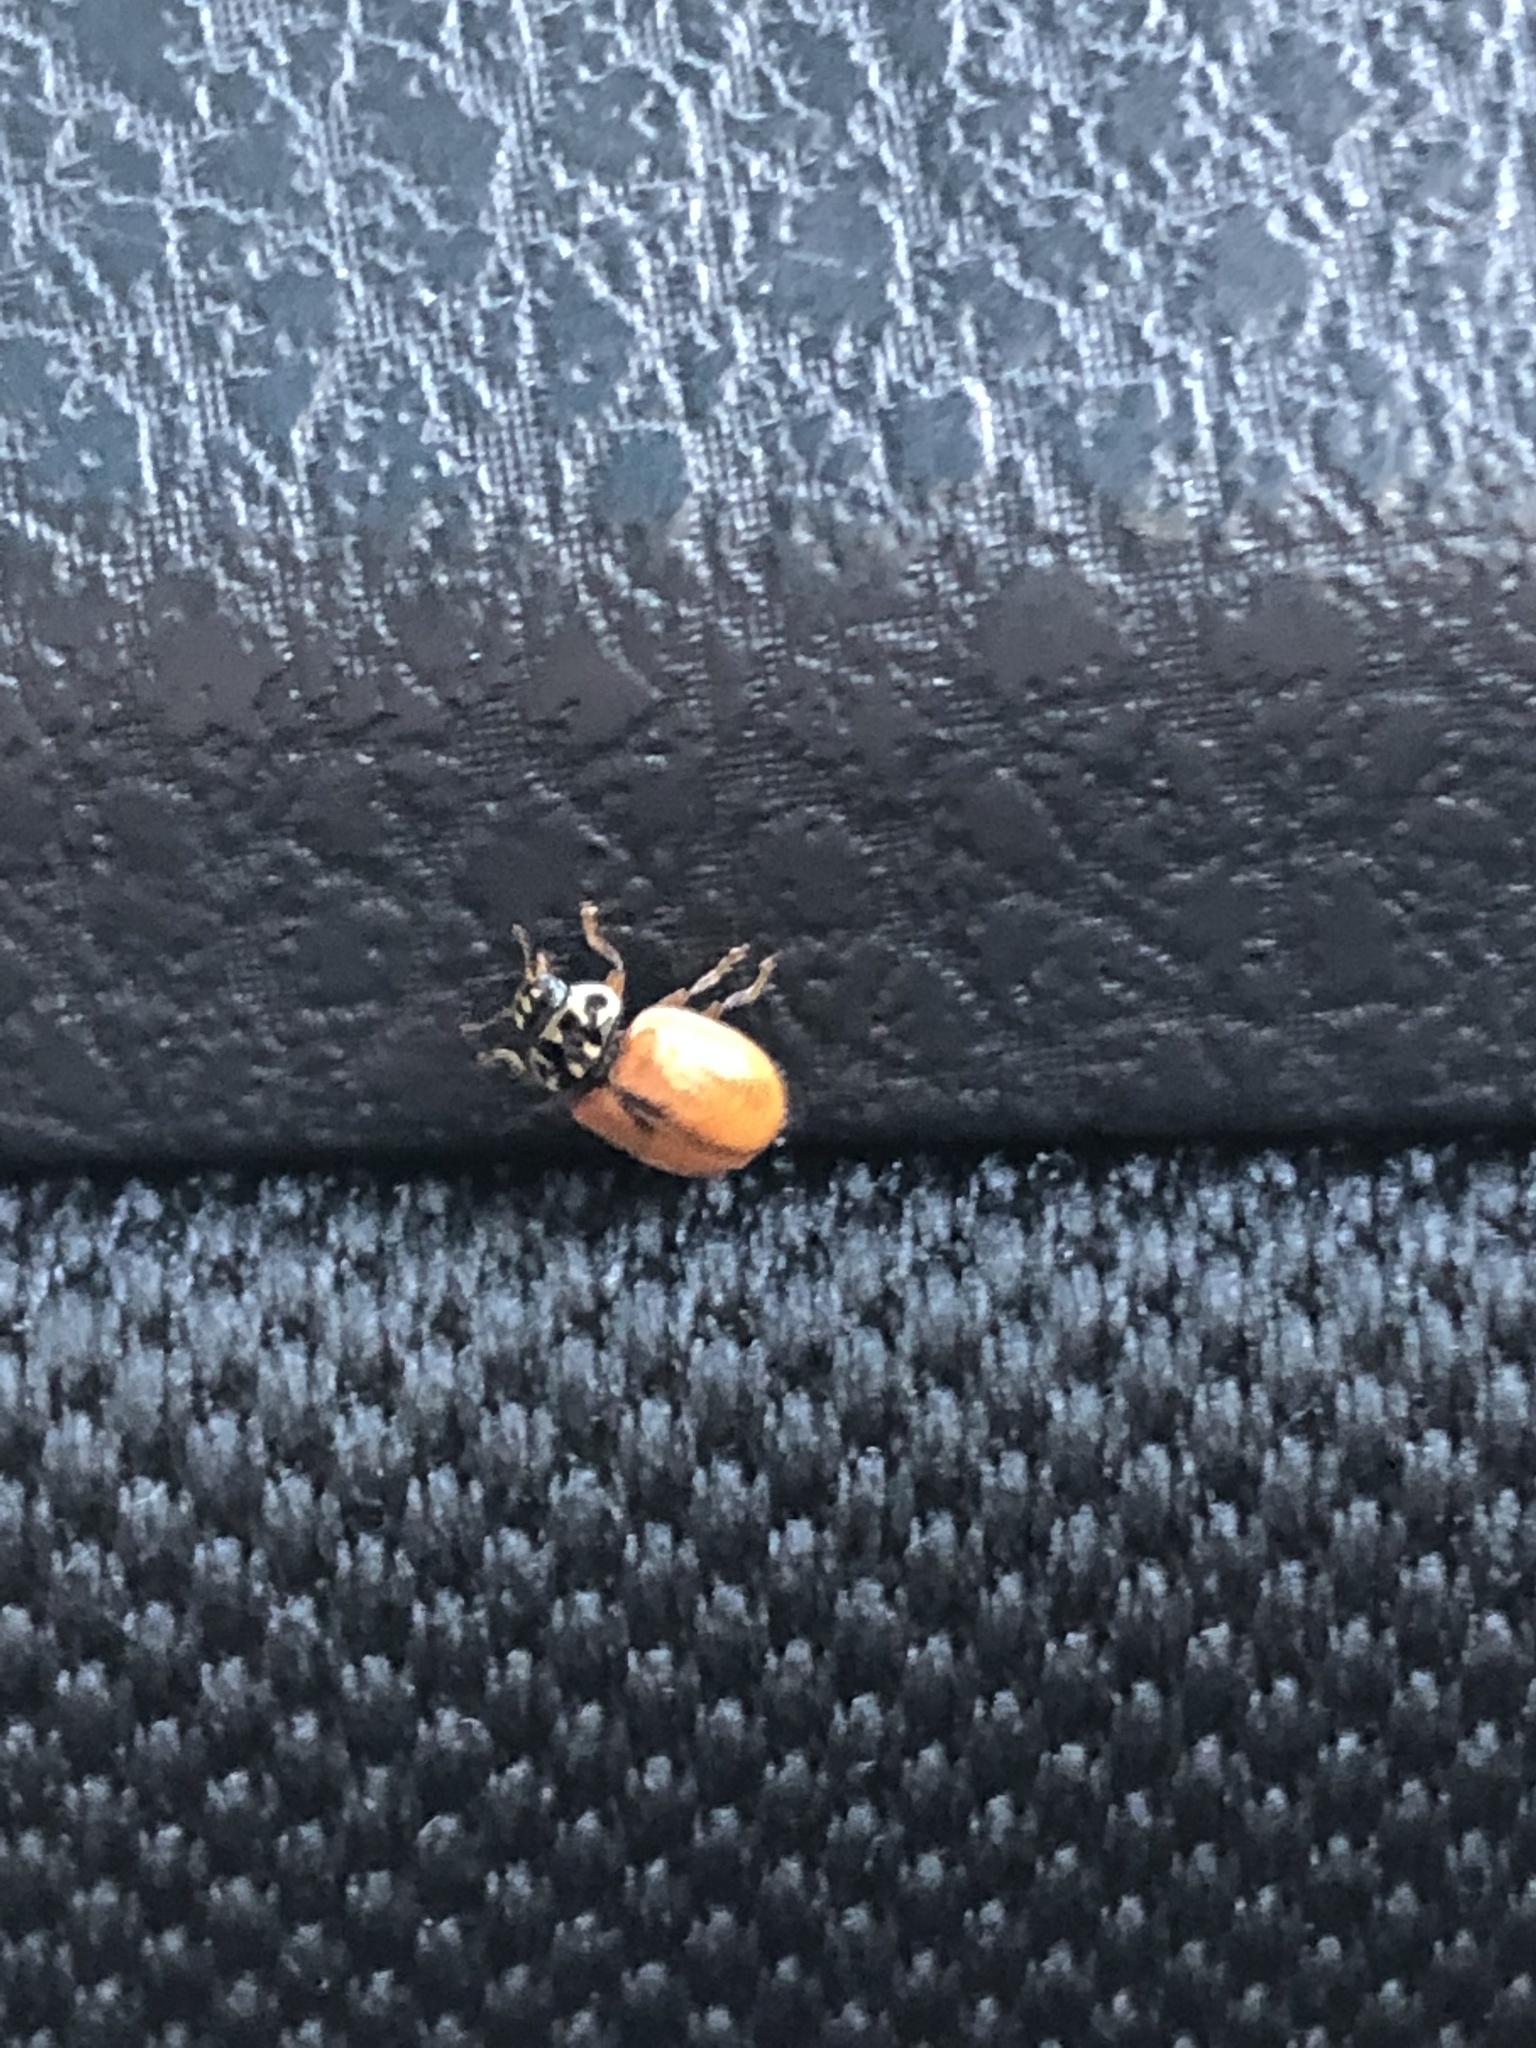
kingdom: Animalia
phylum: Arthropoda
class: Insecta
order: Coleoptera
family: Coccinellidae
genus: Mulsantina
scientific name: Mulsantina picta
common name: Painted ladybird
